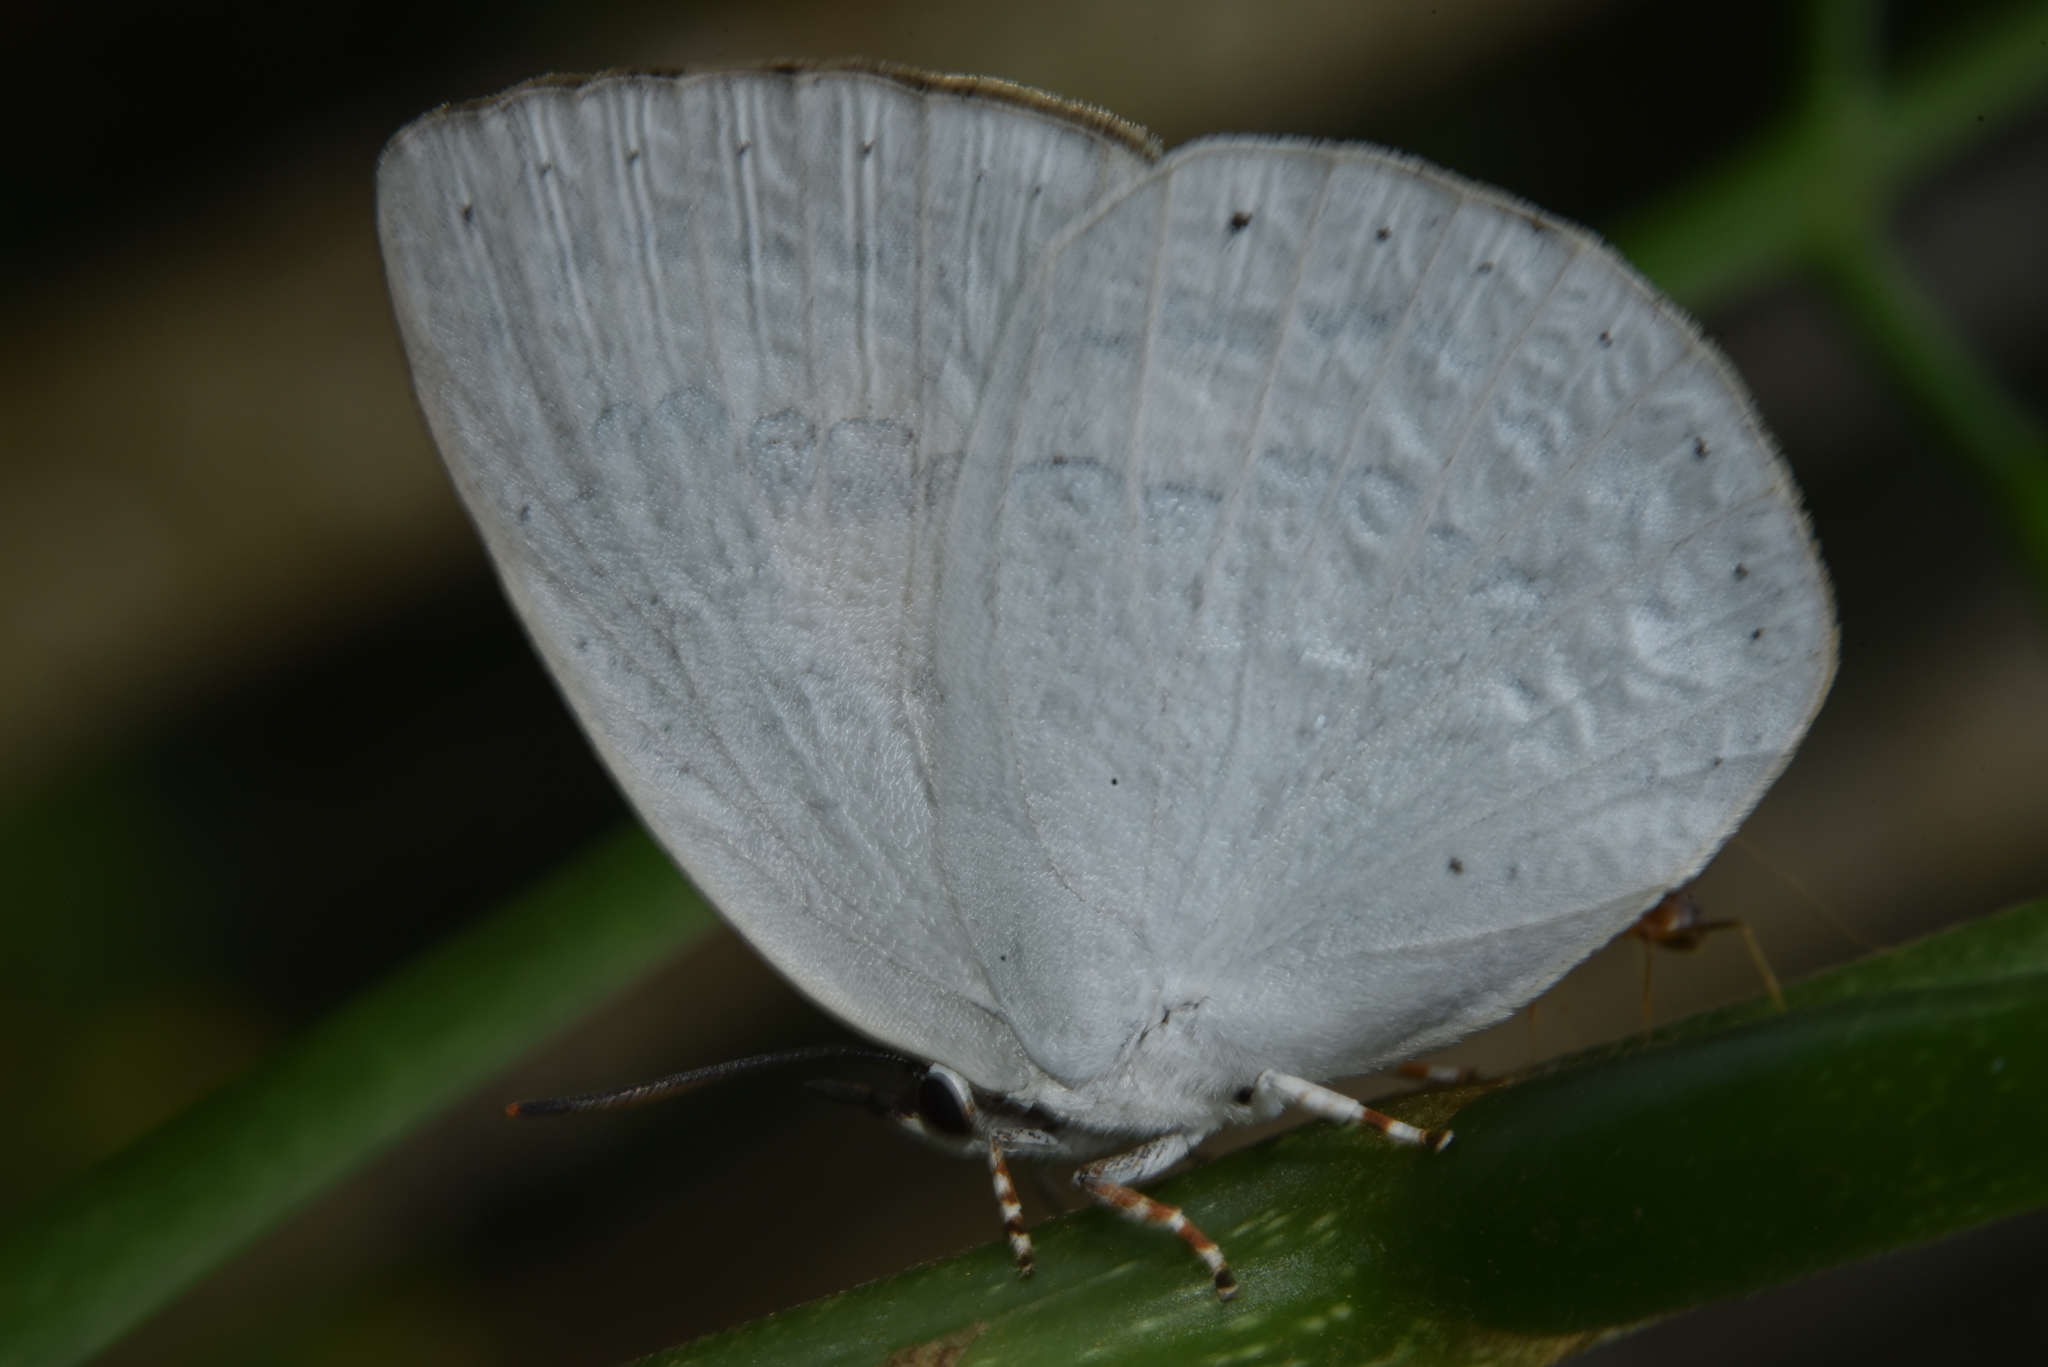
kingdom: Animalia
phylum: Arthropoda
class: Insecta
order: Lepidoptera
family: Lycaenidae
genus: Curetis
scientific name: Curetis thetis
